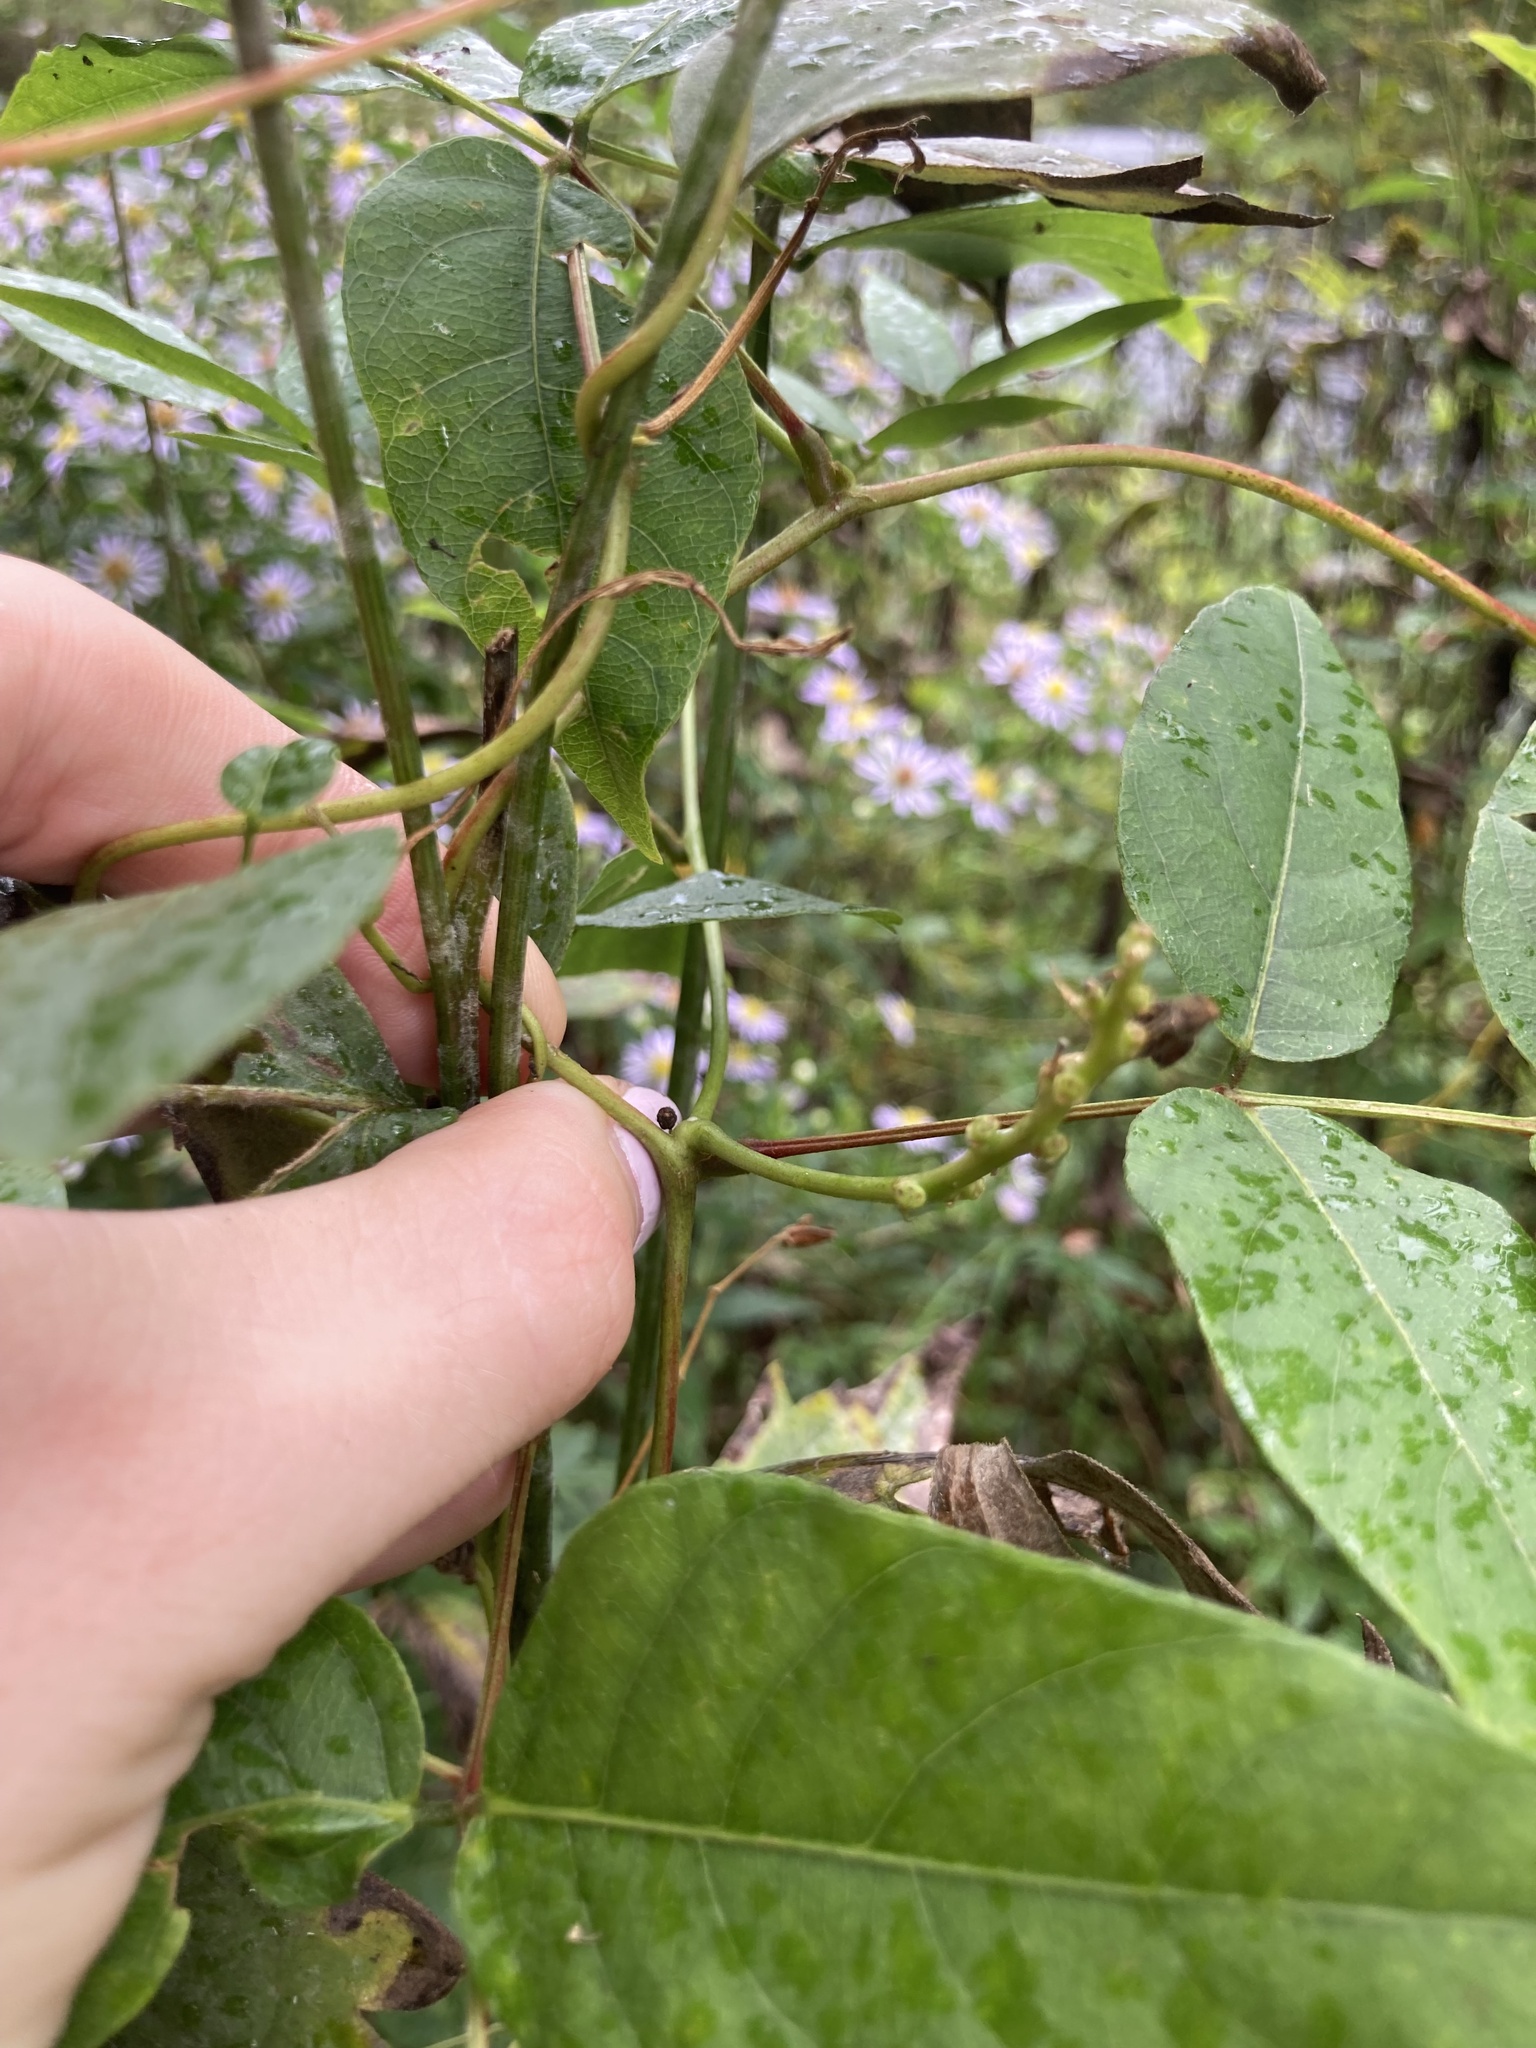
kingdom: Plantae
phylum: Tracheophyta
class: Magnoliopsida
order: Fabales
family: Fabaceae
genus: Apios
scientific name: Apios americana
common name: American potato-bean
